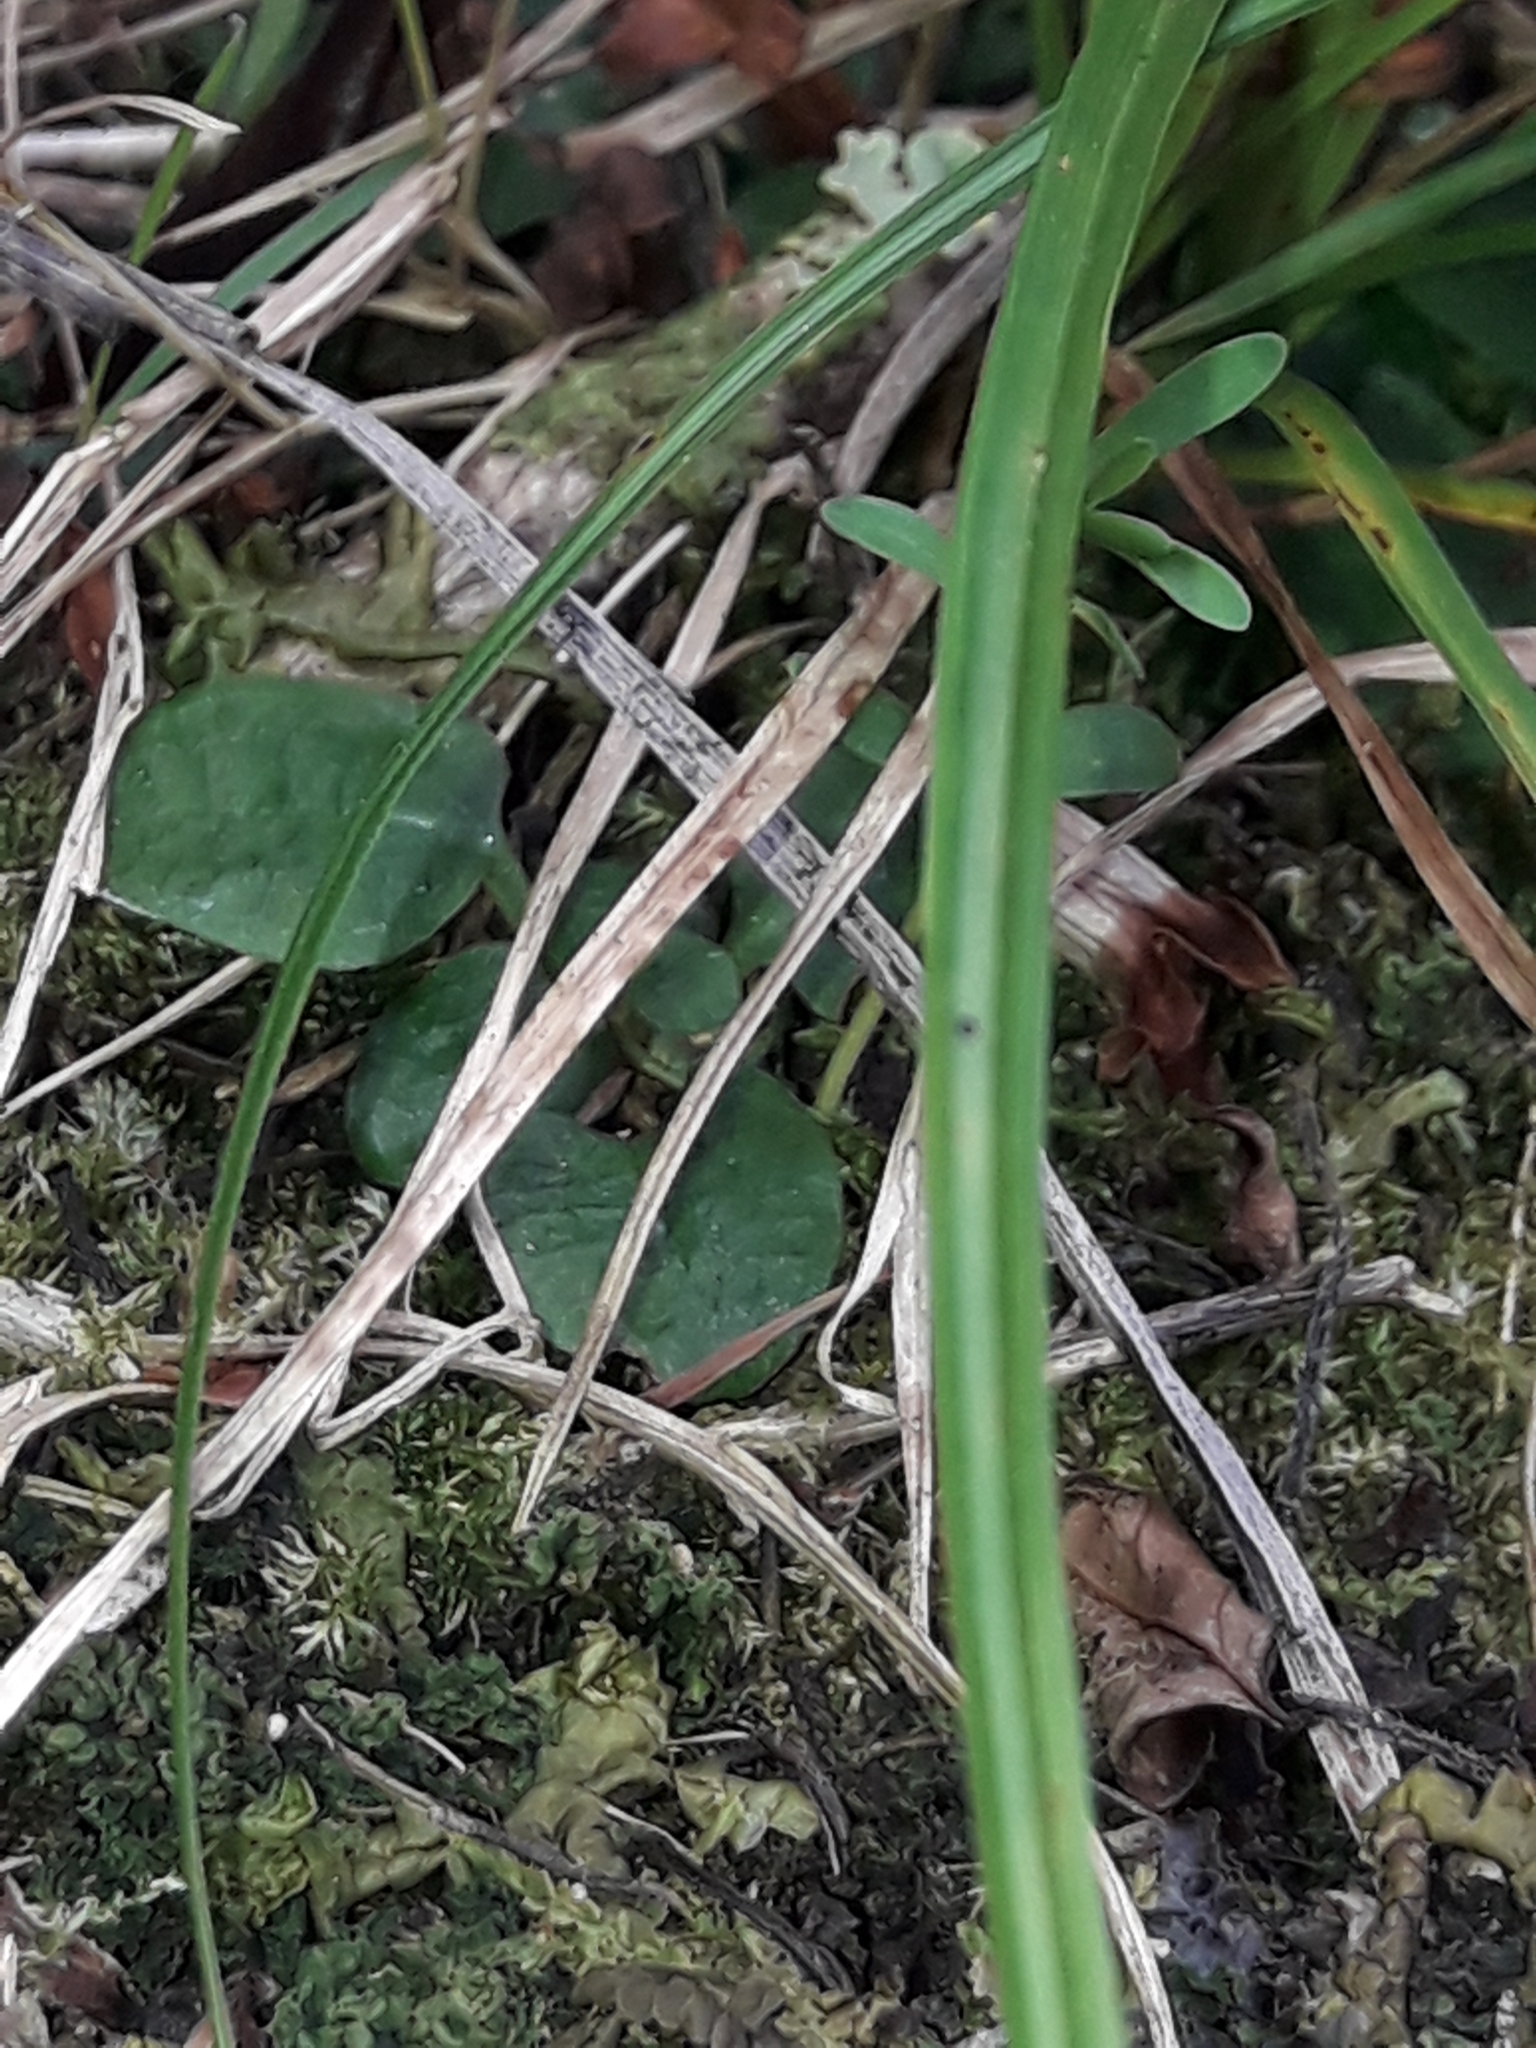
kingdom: Plantae
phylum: Tracheophyta
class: Liliopsida
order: Asparagales
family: Orchidaceae
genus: Pterostylis
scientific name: Pterostylis pedunculata
